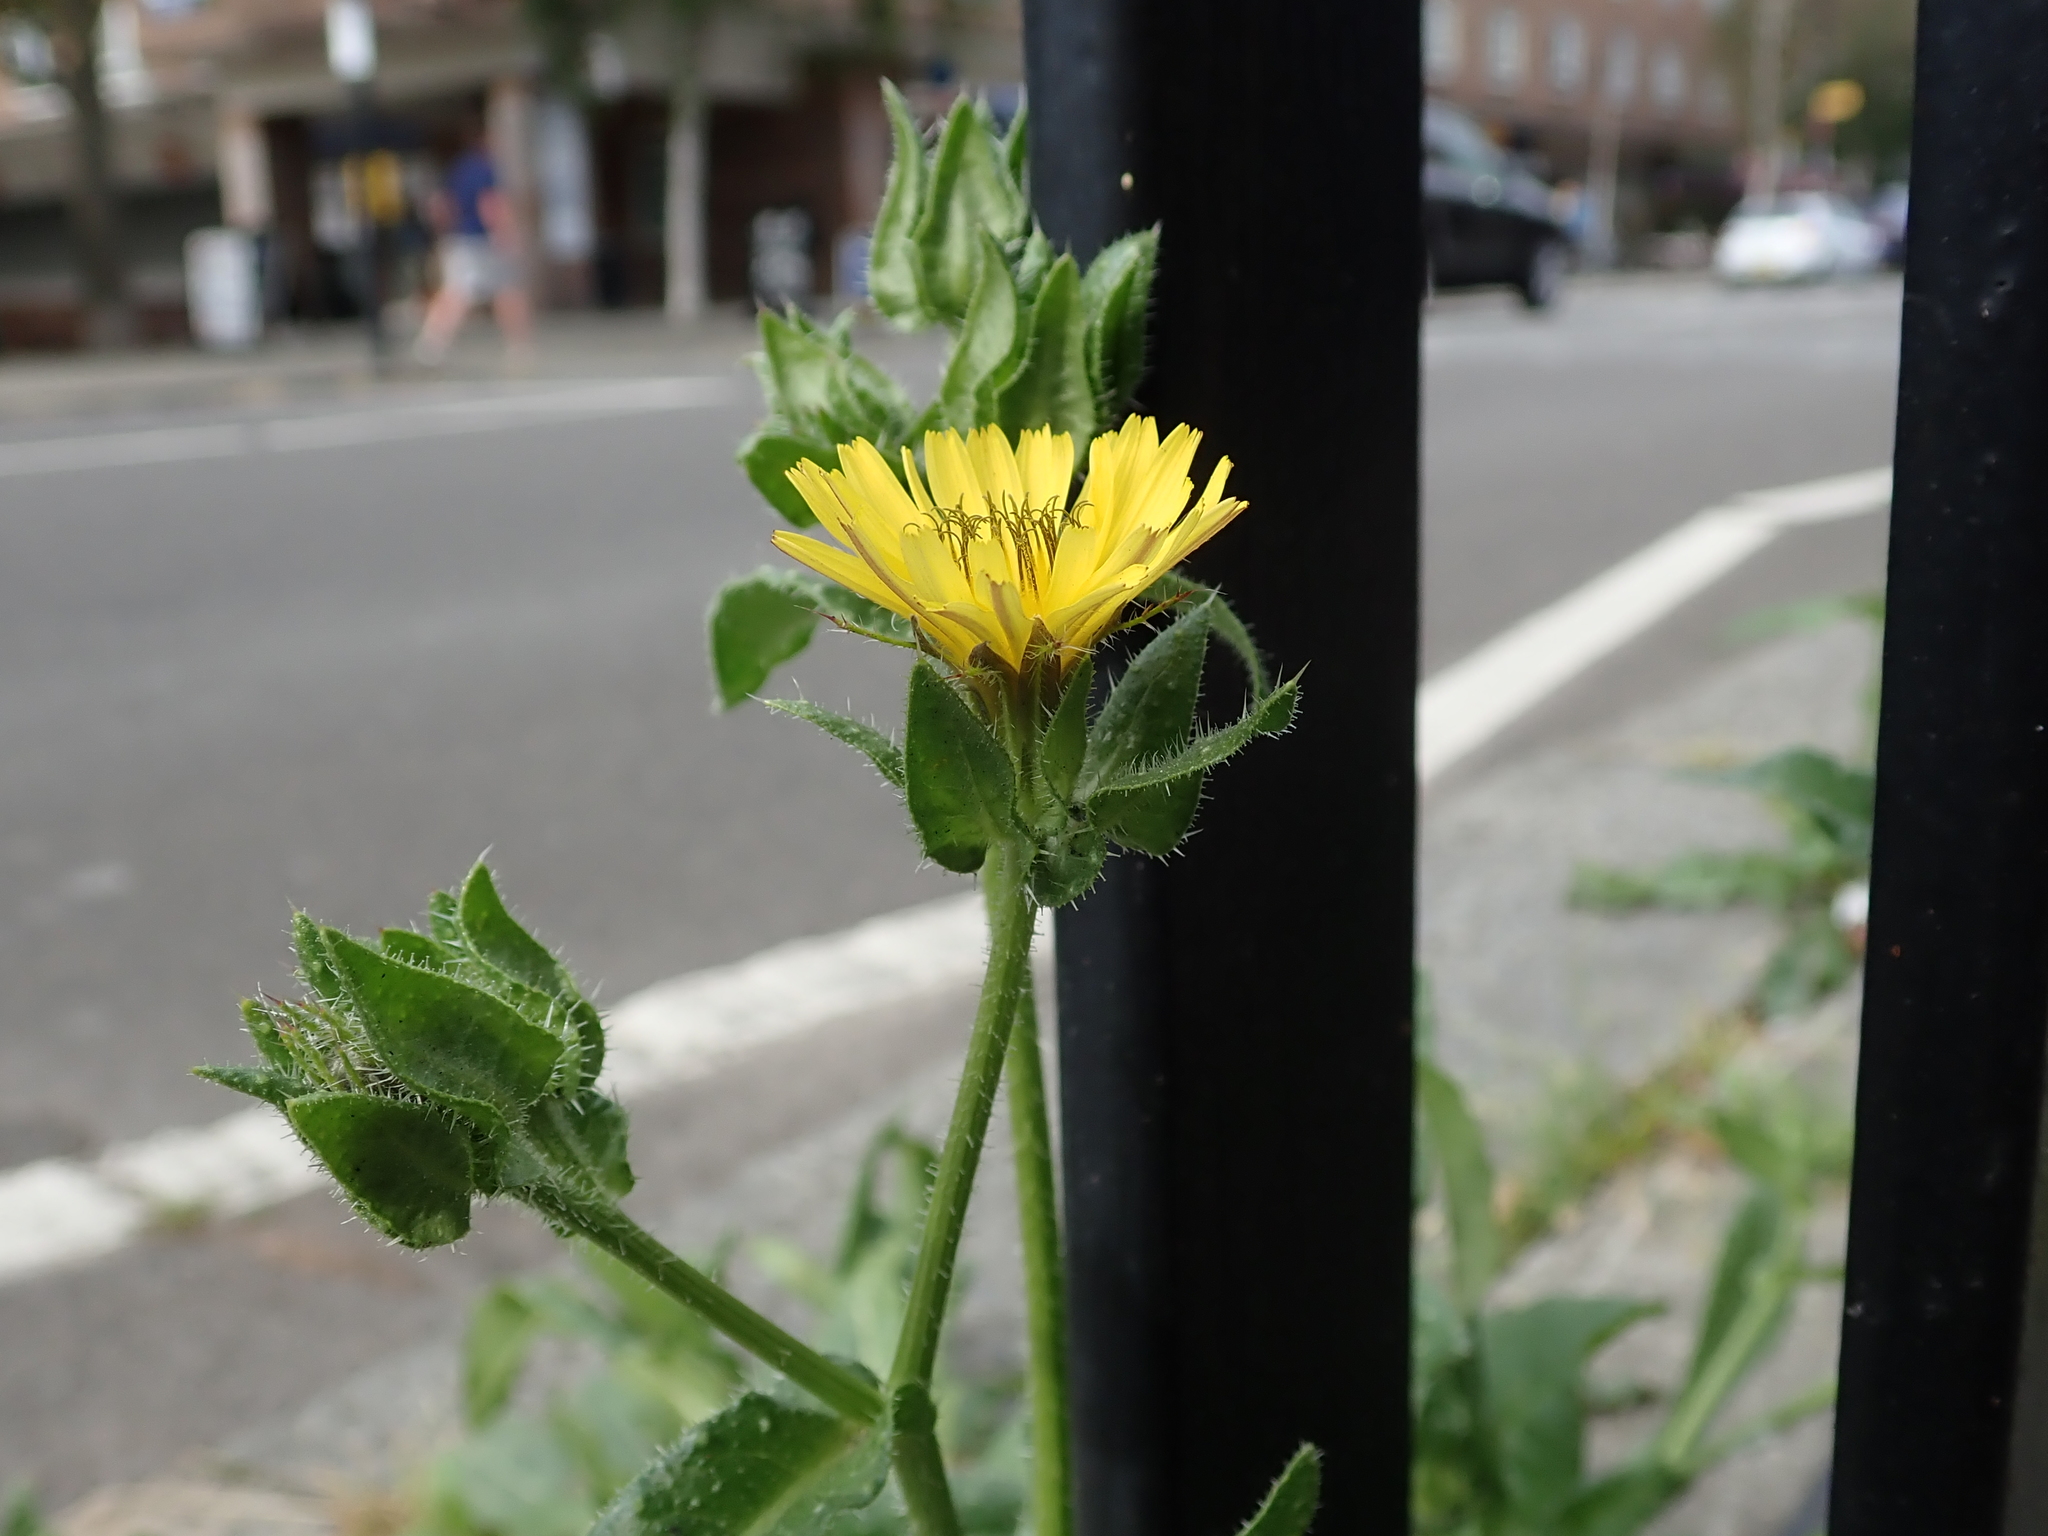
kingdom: Plantae
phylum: Tracheophyta
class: Magnoliopsida
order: Asterales
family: Asteraceae
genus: Helminthotheca
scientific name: Helminthotheca echioides
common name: Ox-tongue
